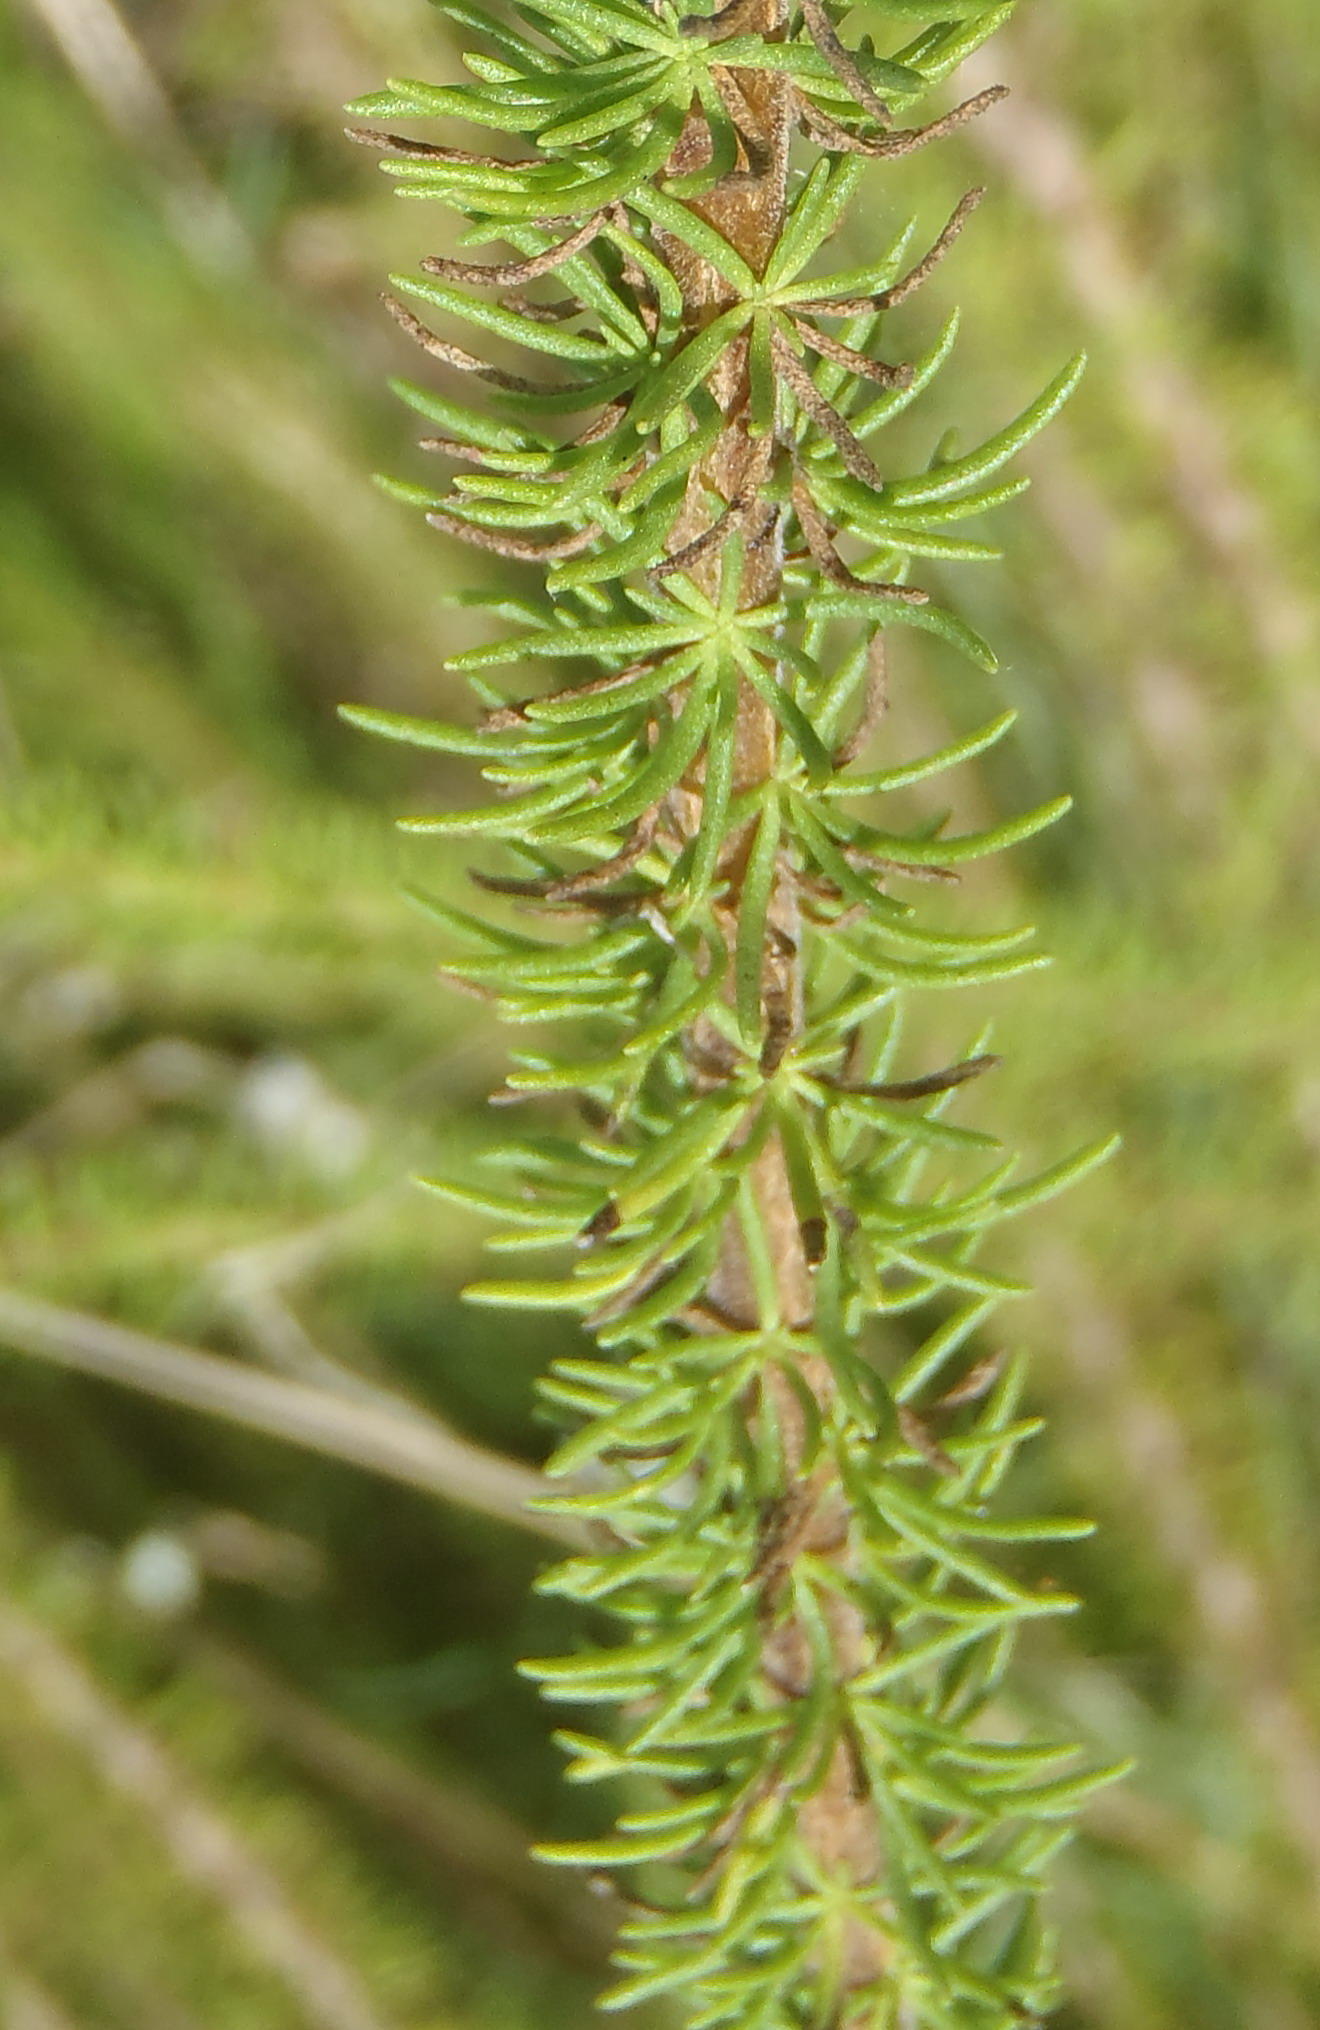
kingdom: Plantae
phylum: Tracheophyta
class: Magnoliopsida
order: Lamiales
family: Scrophulariaceae
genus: Selago
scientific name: Selago corymbosa
